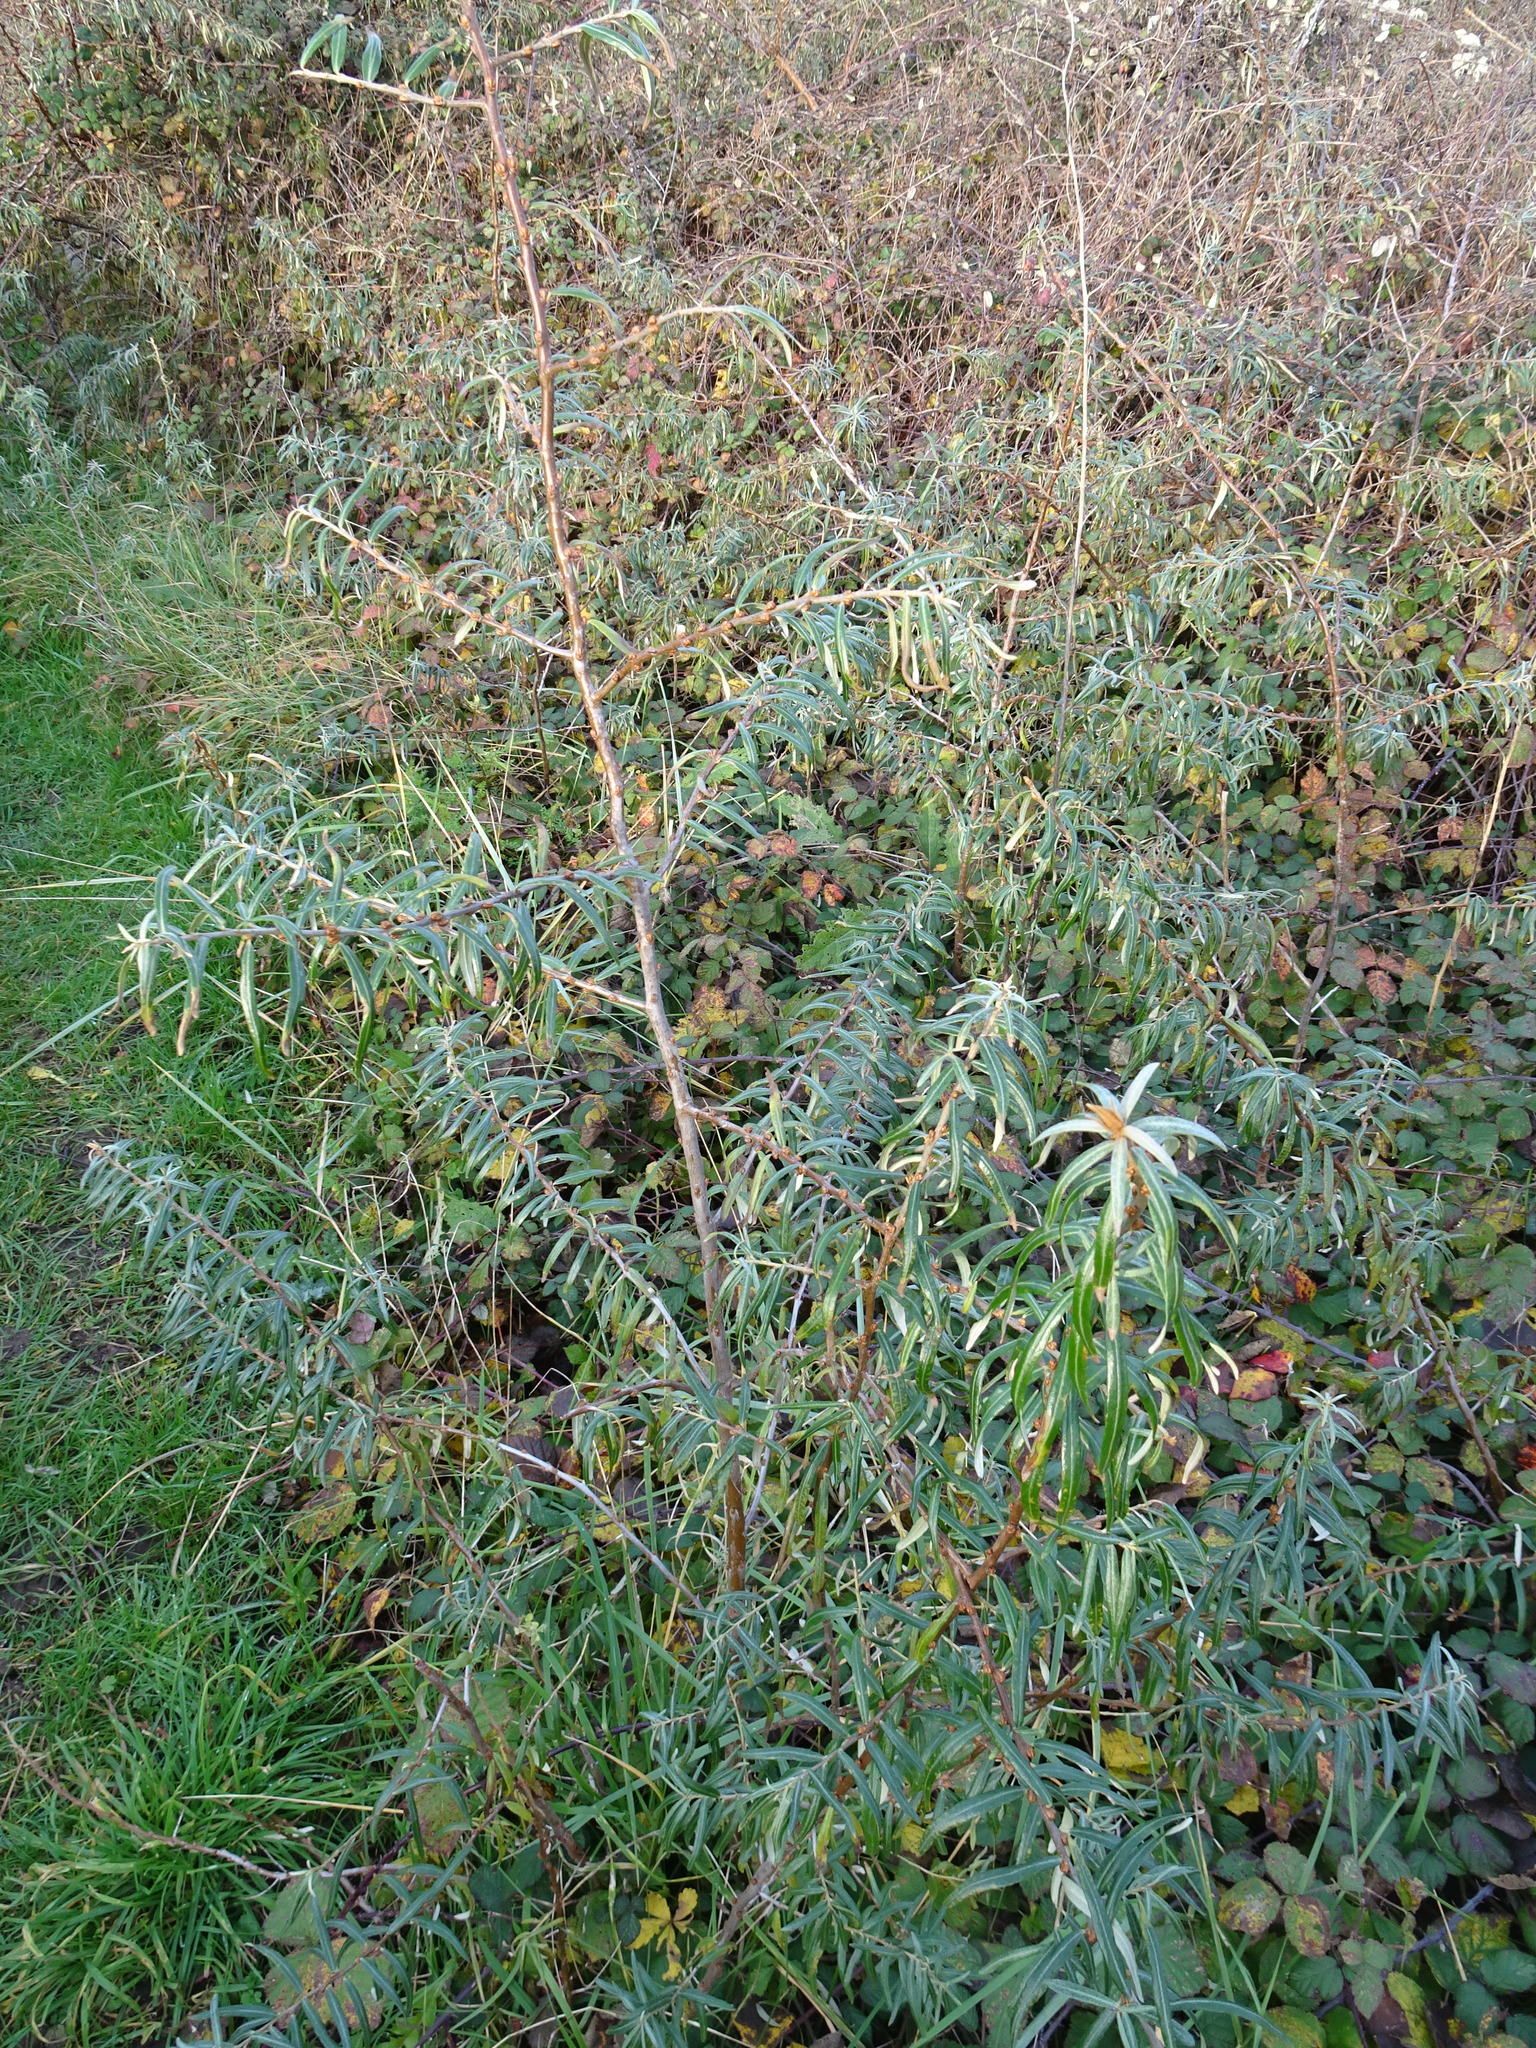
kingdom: Plantae
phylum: Tracheophyta
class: Magnoliopsida
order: Rosales
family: Elaeagnaceae
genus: Hippophae
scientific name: Hippophae rhamnoides
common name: Sea-buckthorn
